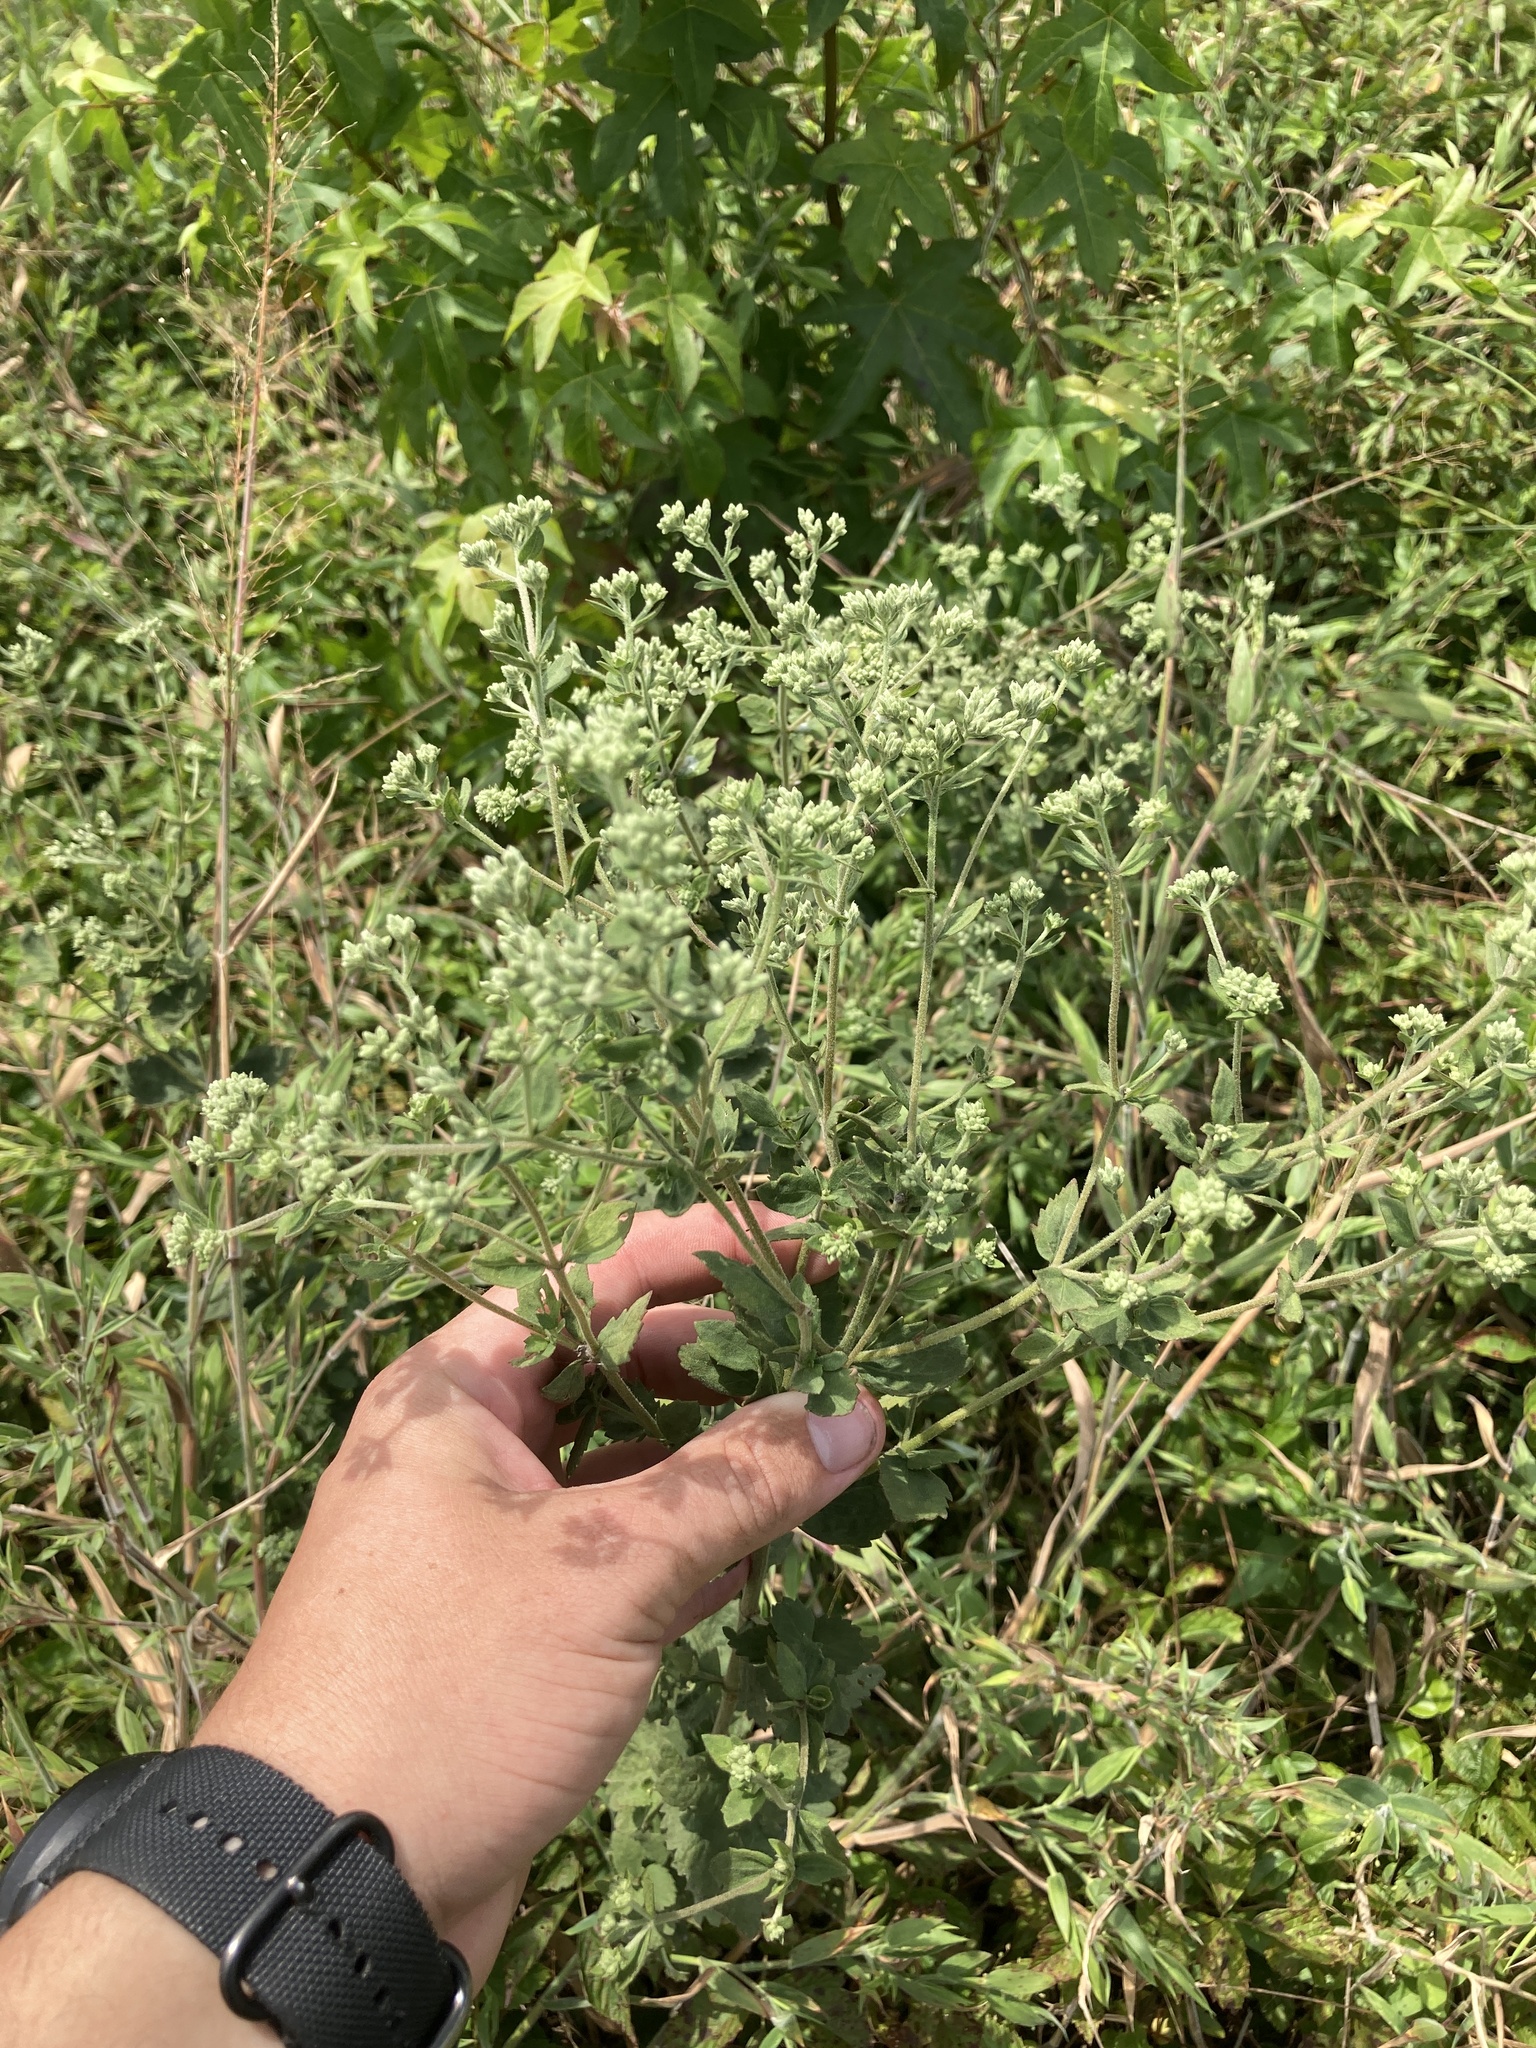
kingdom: Plantae
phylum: Tracheophyta
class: Magnoliopsida
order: Asterales
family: Asteraceae
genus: Eupatorium
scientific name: Eupatorium rotundifolium
